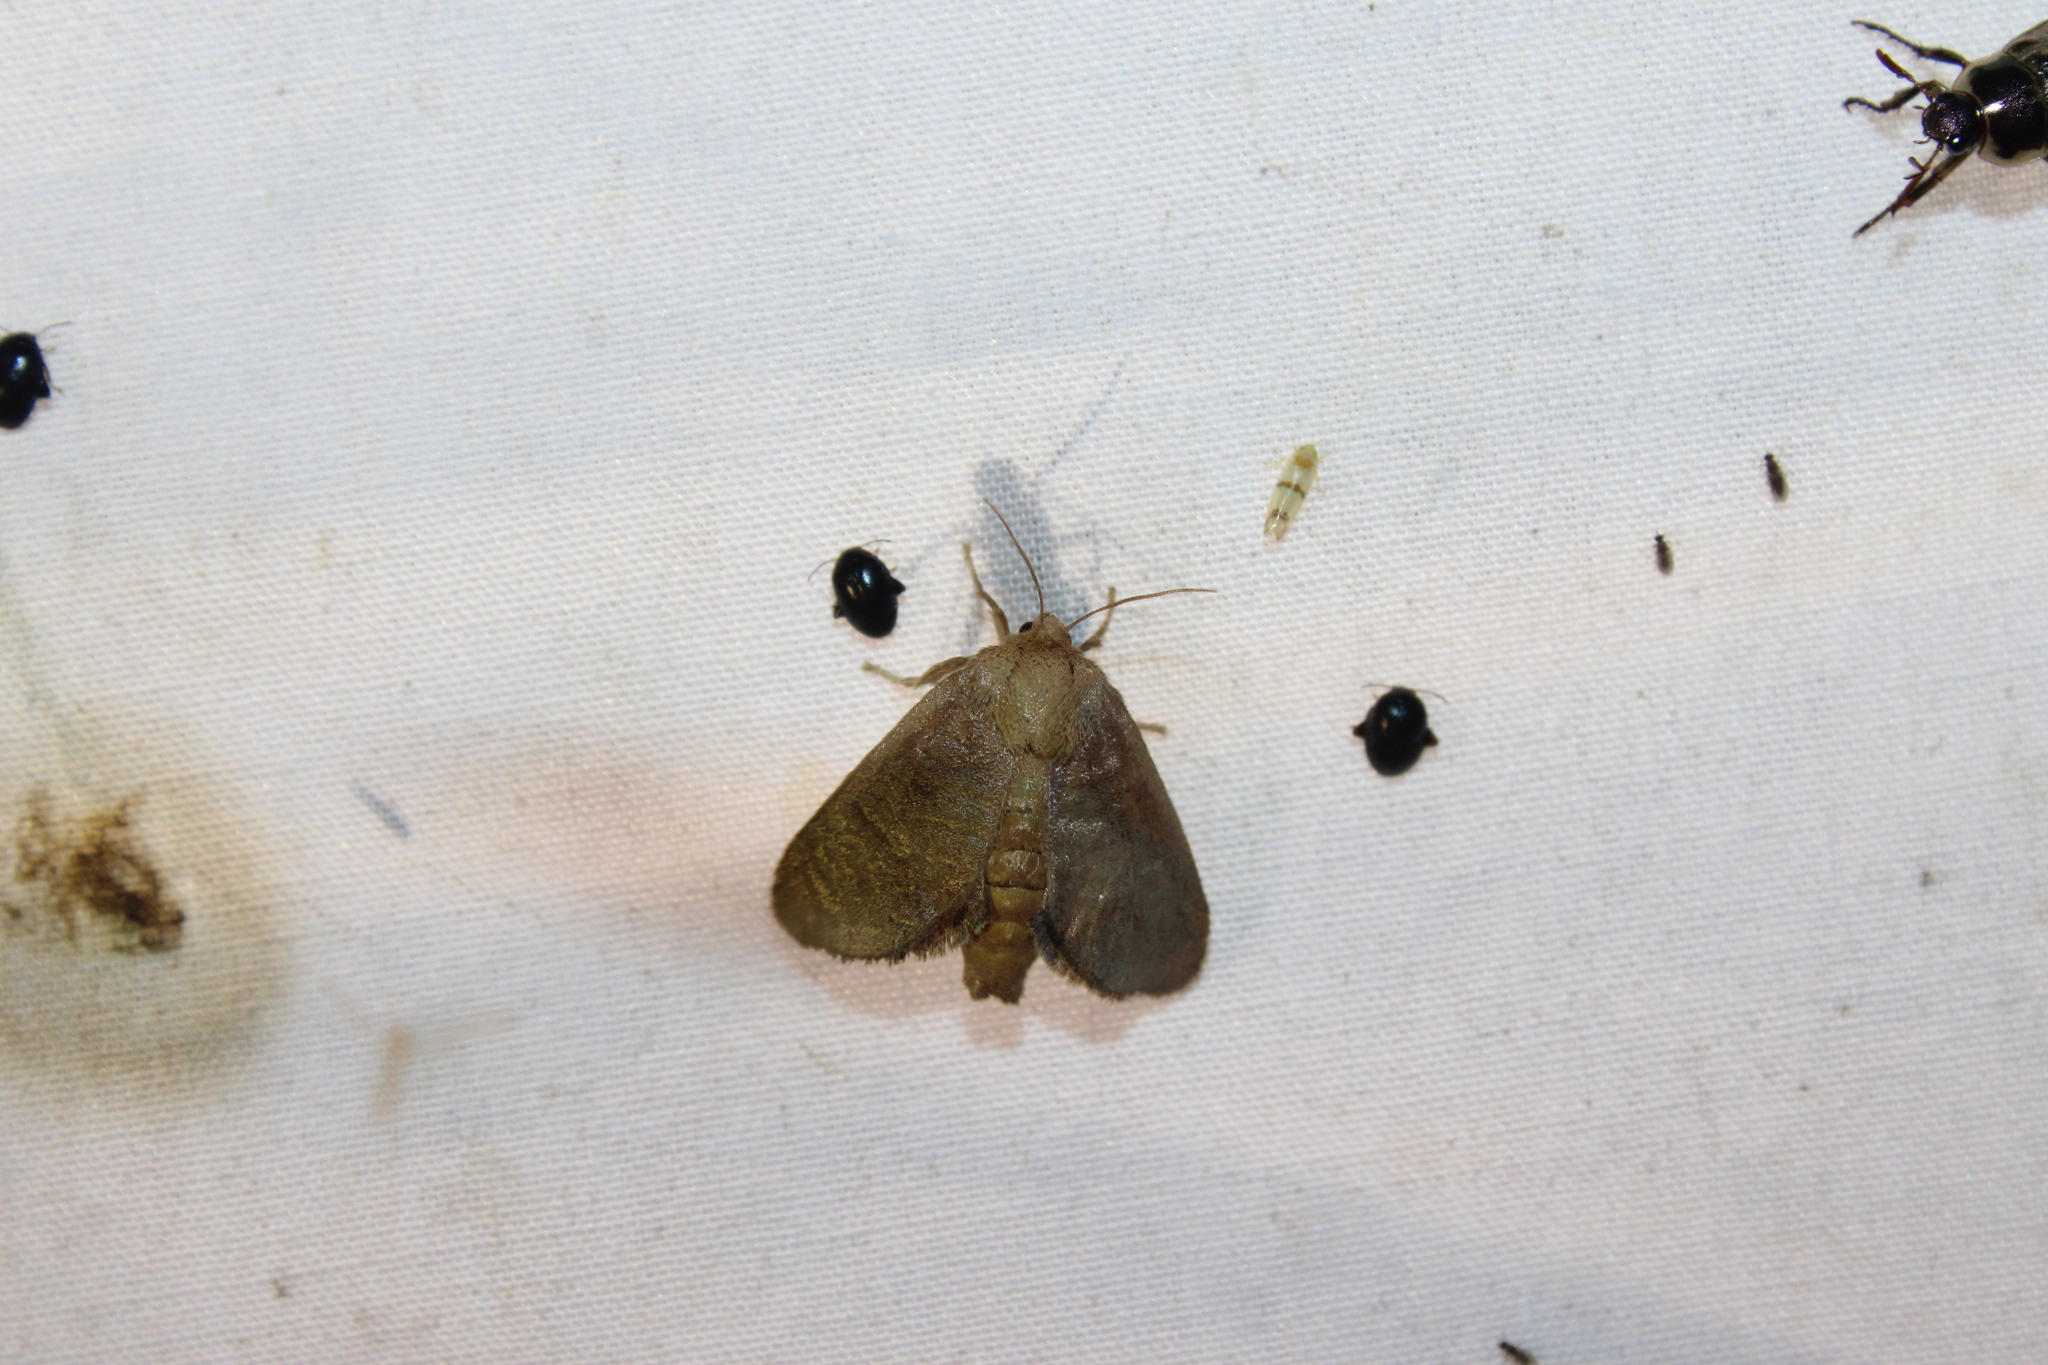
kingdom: Animalia
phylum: Arthropoda
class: Insecta
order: Lepidoptera
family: Limacodidae
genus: Isa
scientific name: Isa textula
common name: Crowned slug moth
